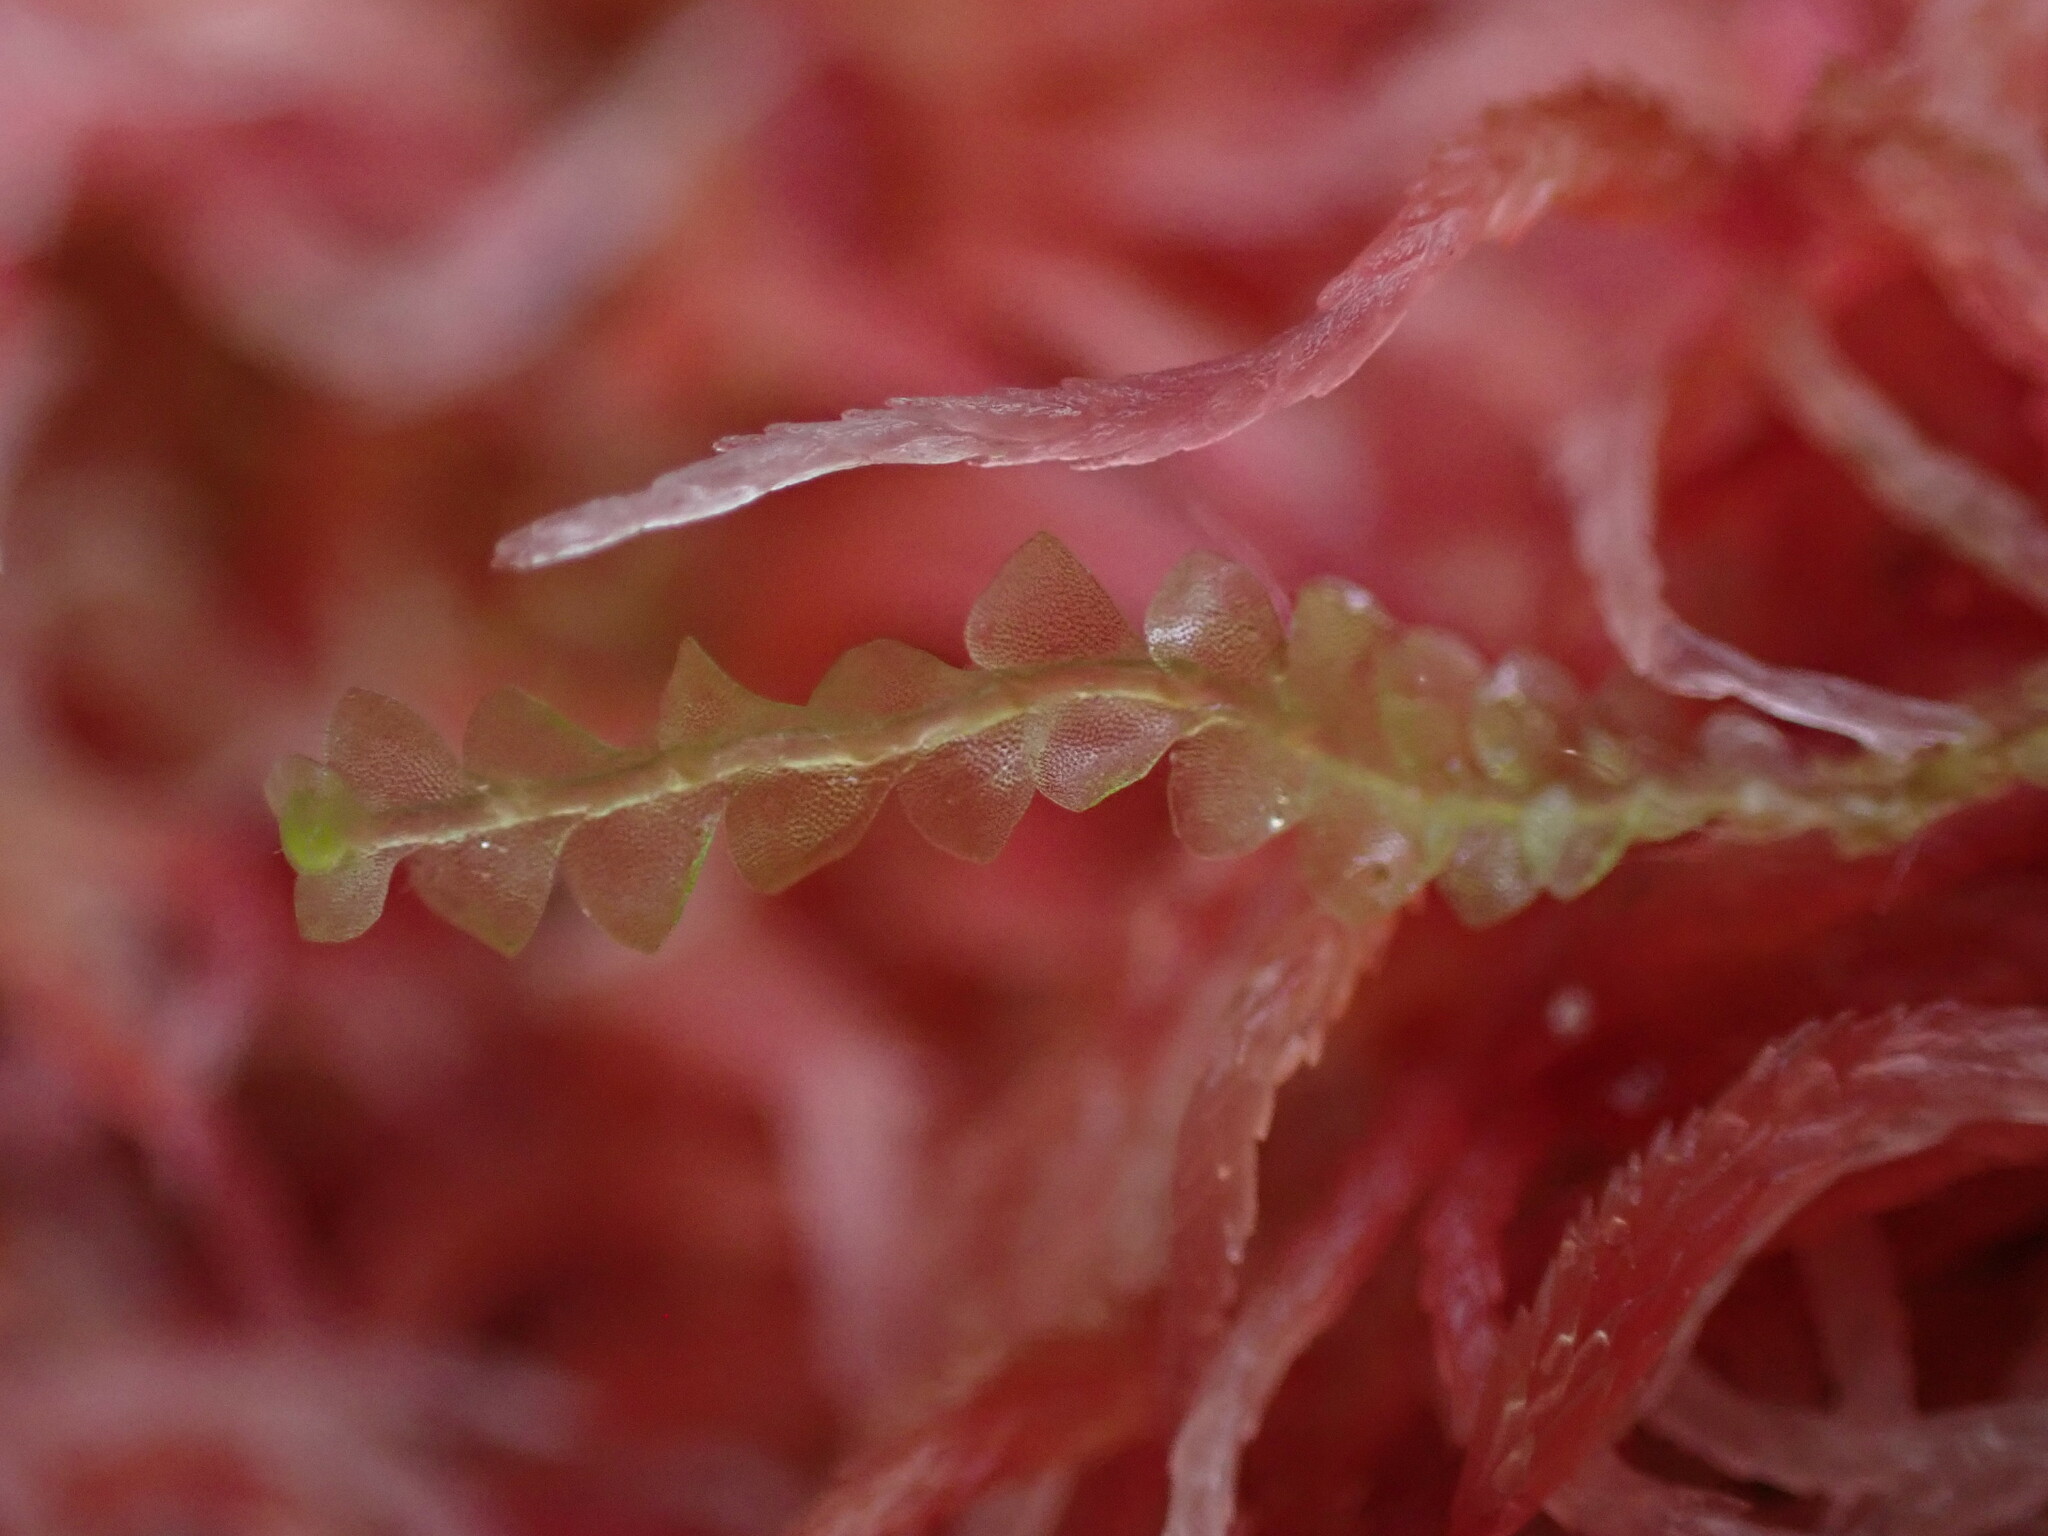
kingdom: Plantae
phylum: Marchantiophyta
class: Jungermanniopsida
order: Jungermanniales
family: Calypogeiaceae
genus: Calypogeia
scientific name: Calypogeia sphagnicola
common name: Bog pouchwort
